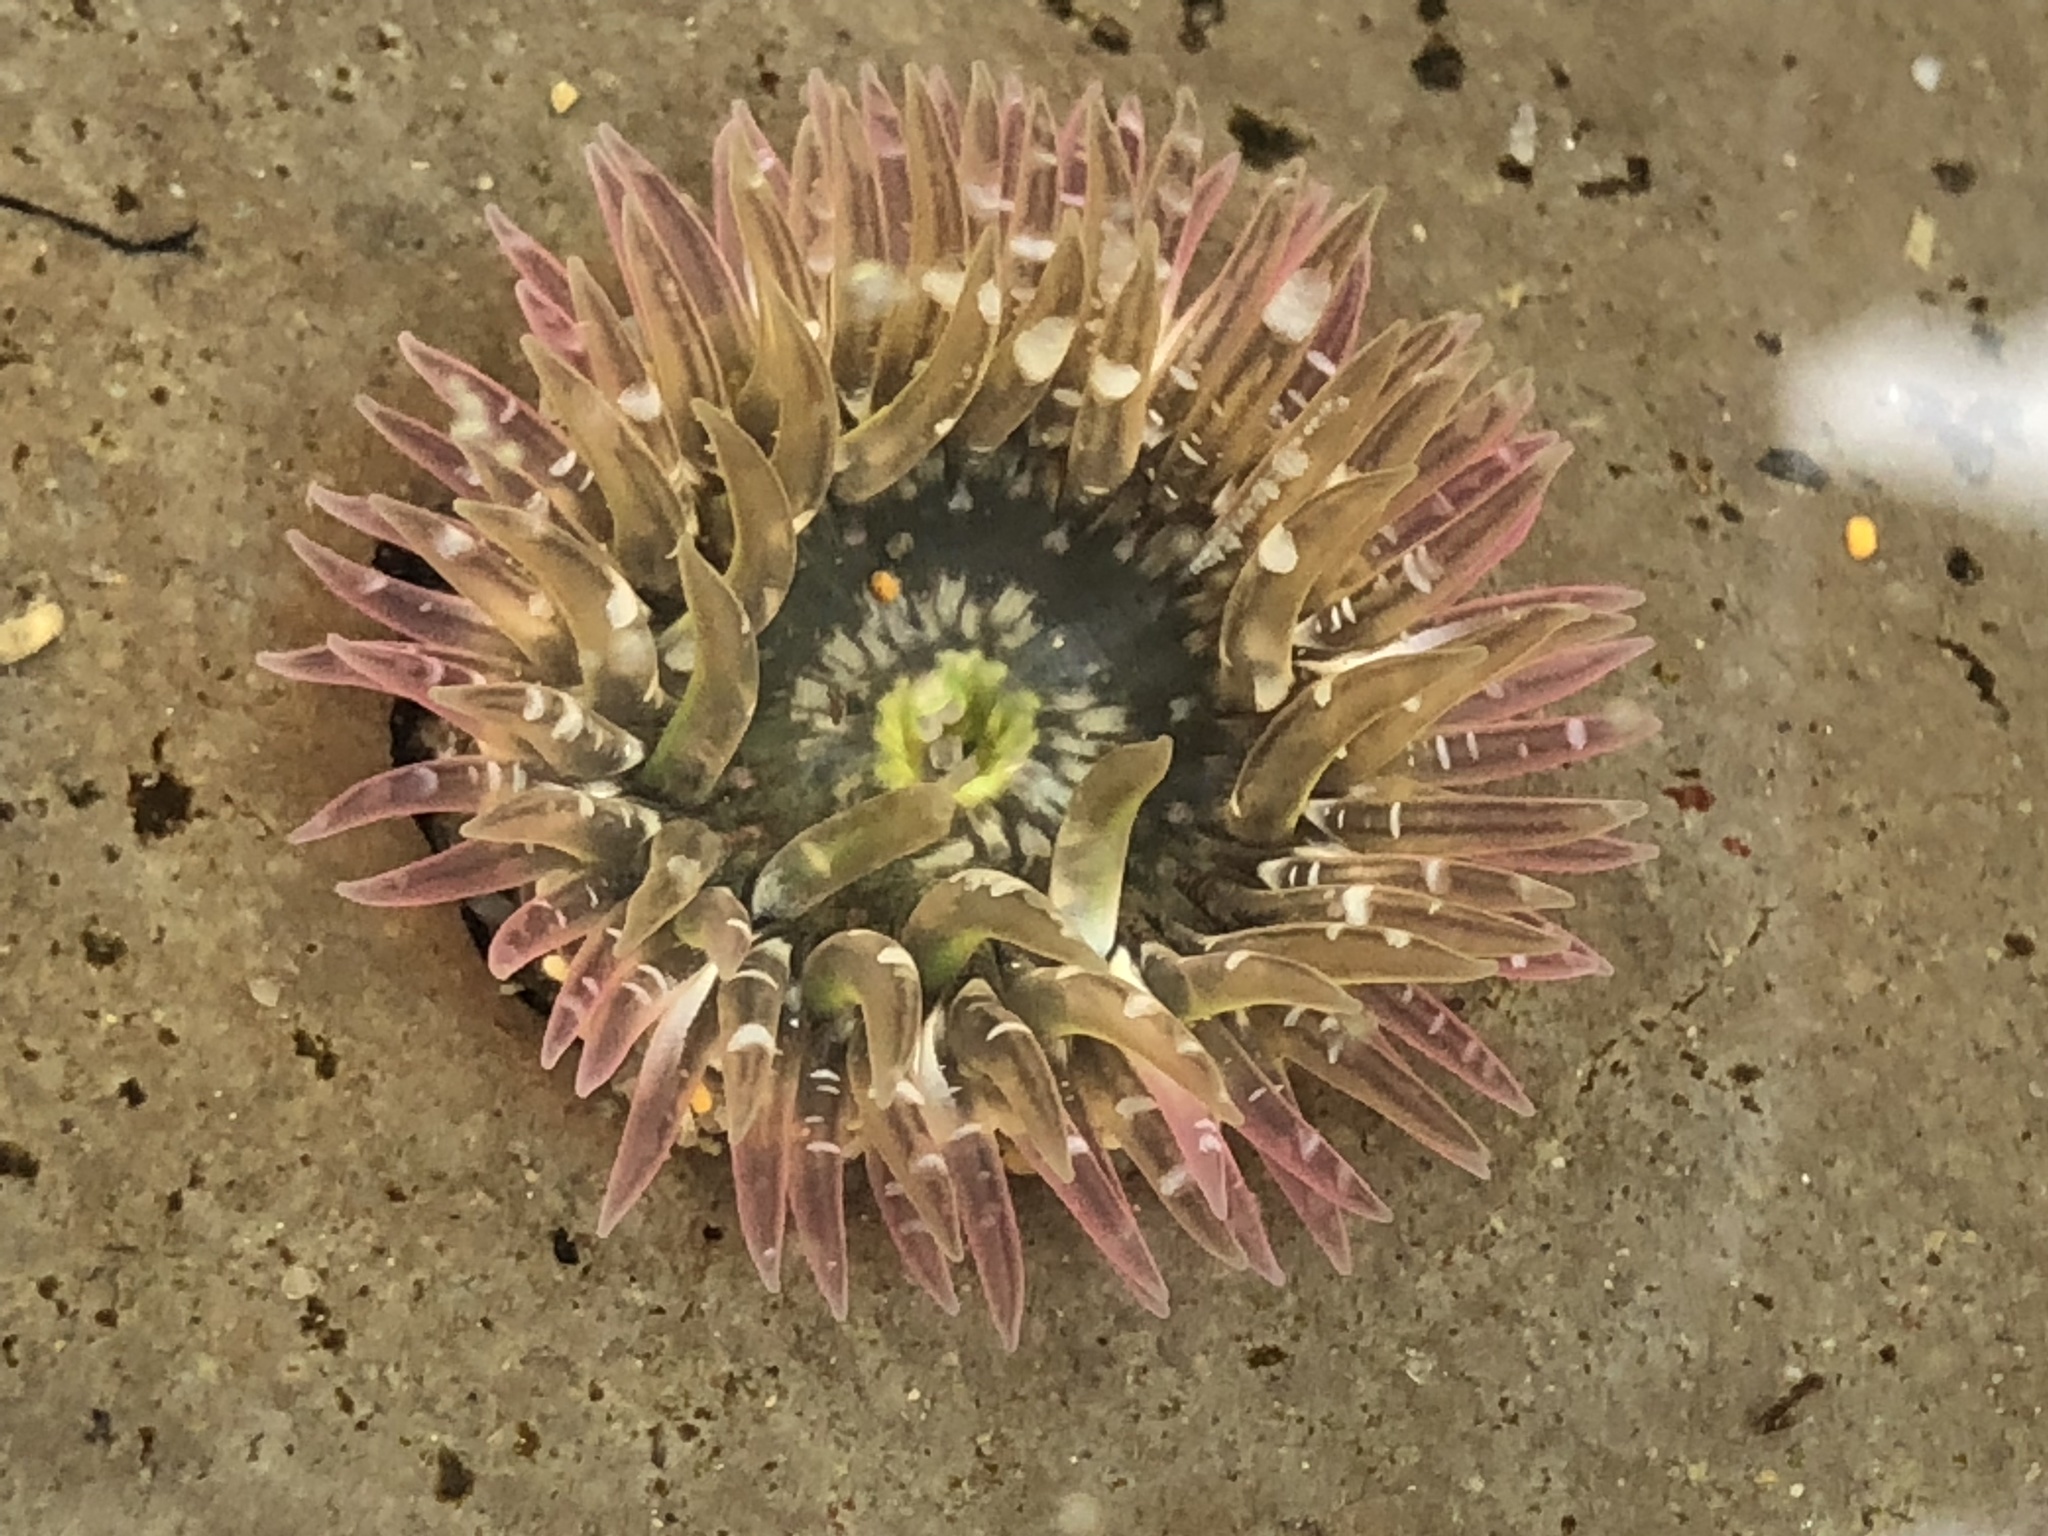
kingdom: Animalia
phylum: Cnidaria
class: Anthozoa
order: Actiniaria
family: Actiniidae
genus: Anthopleura
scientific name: Anthopleura artemisia
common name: Buried sea anemone
